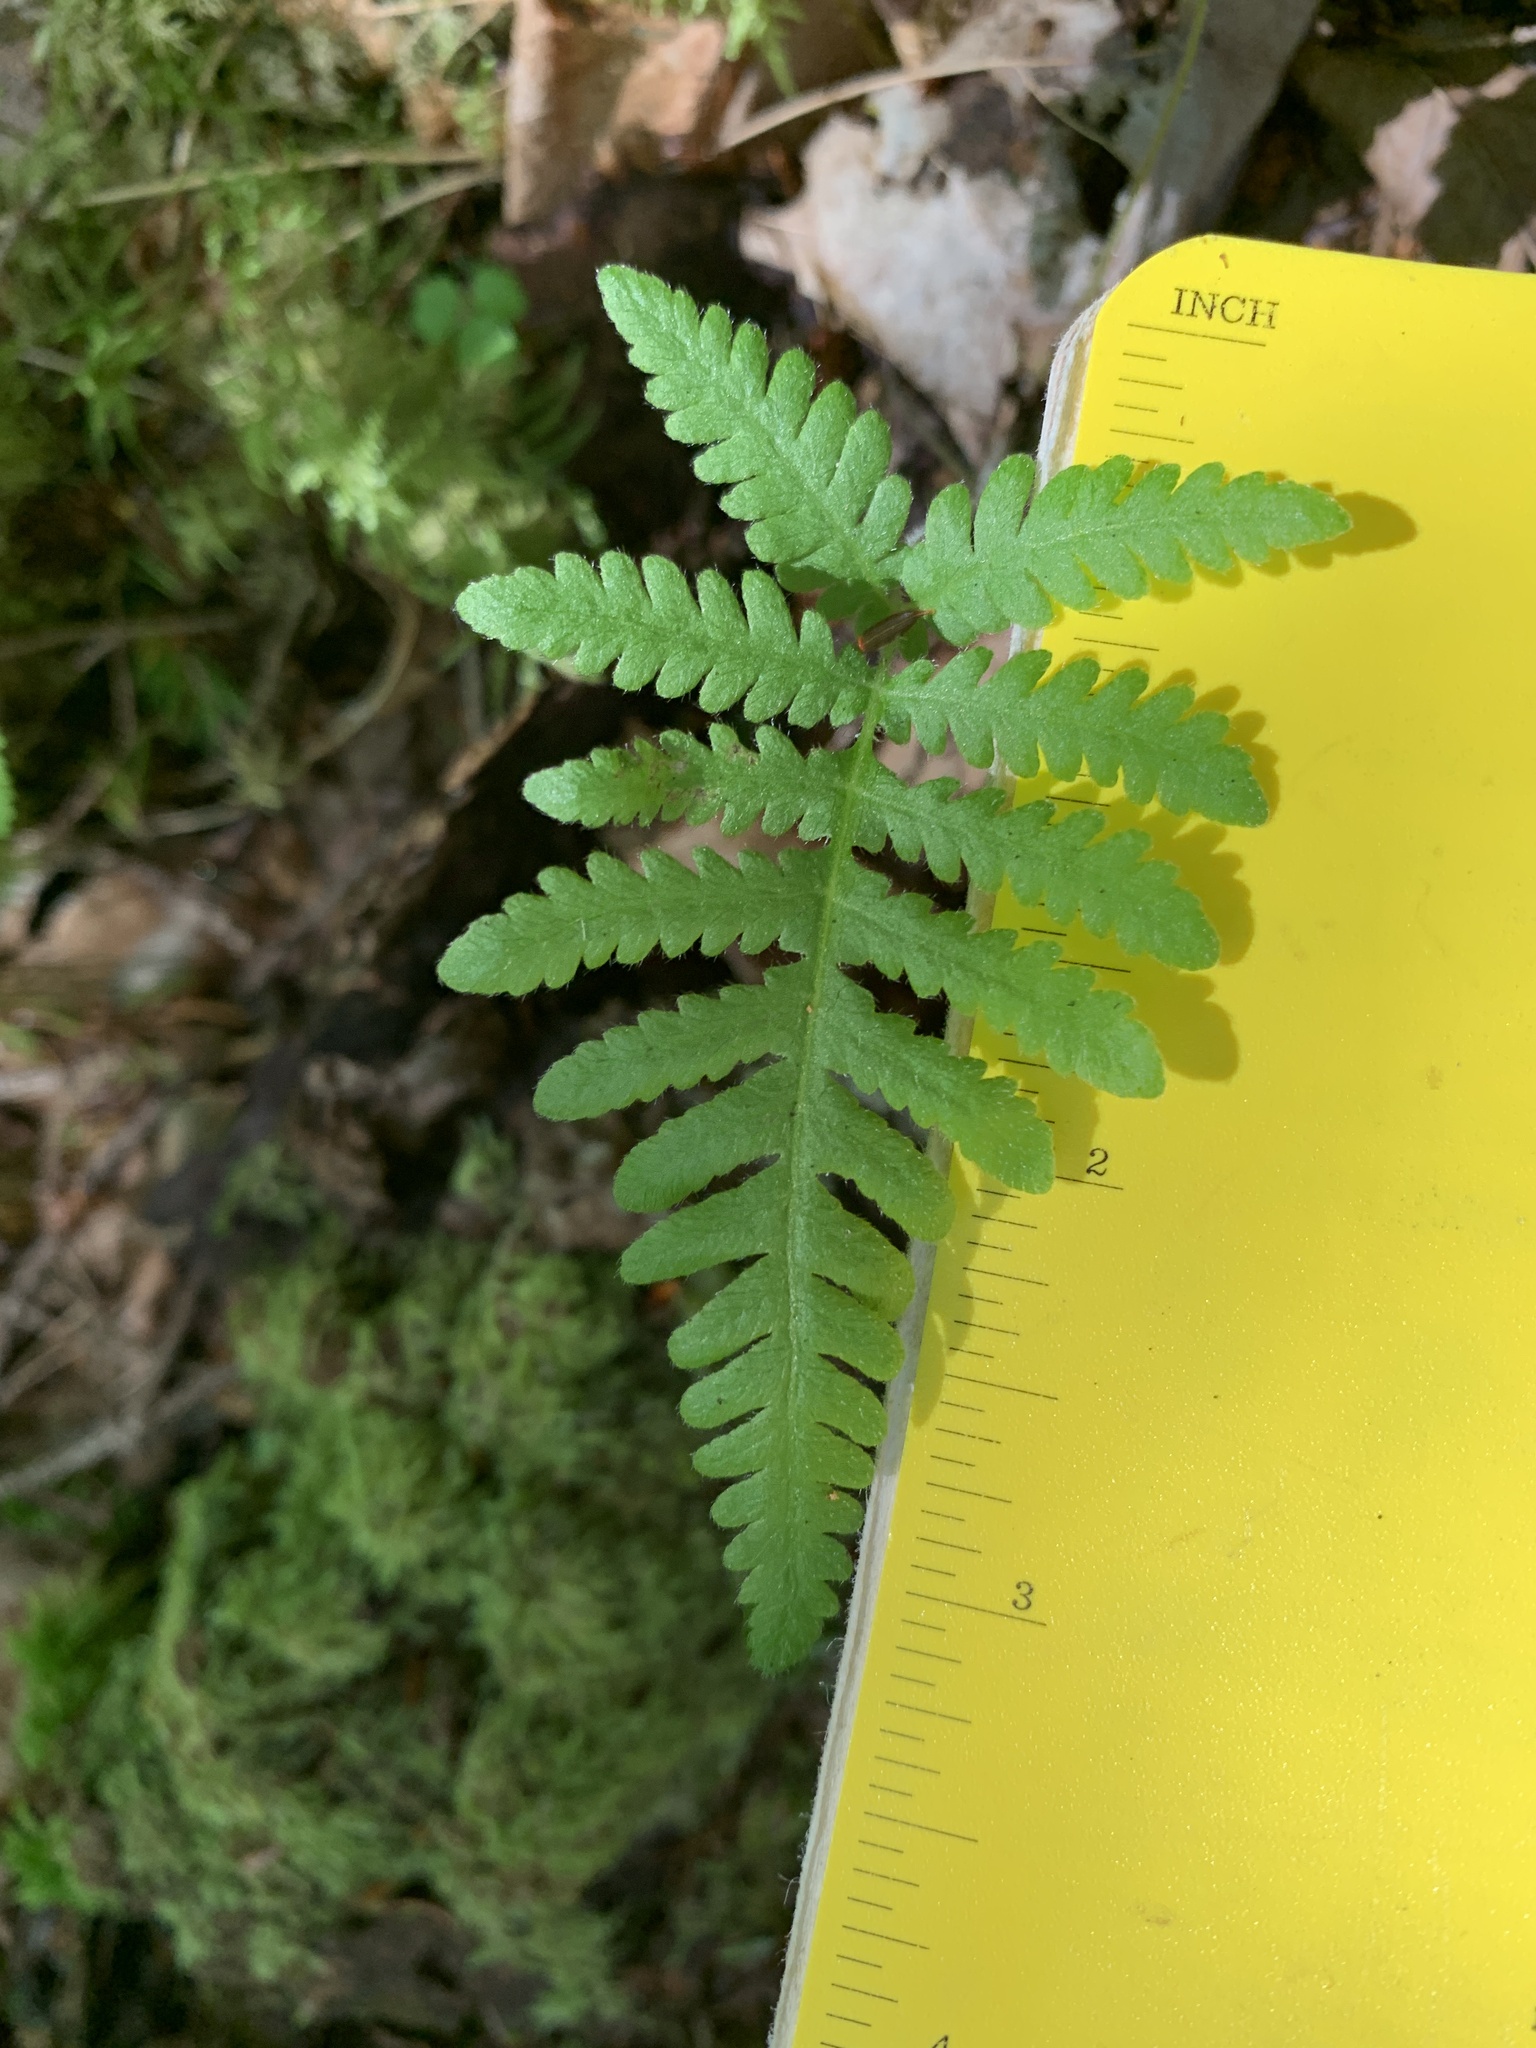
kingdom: Plantae
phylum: Tracheophyta
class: Polypodiopsida
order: Polypodiales
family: Thelypteridaceae
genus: Phegopteris
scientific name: Phegopteris connectilis
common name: Beech fern
